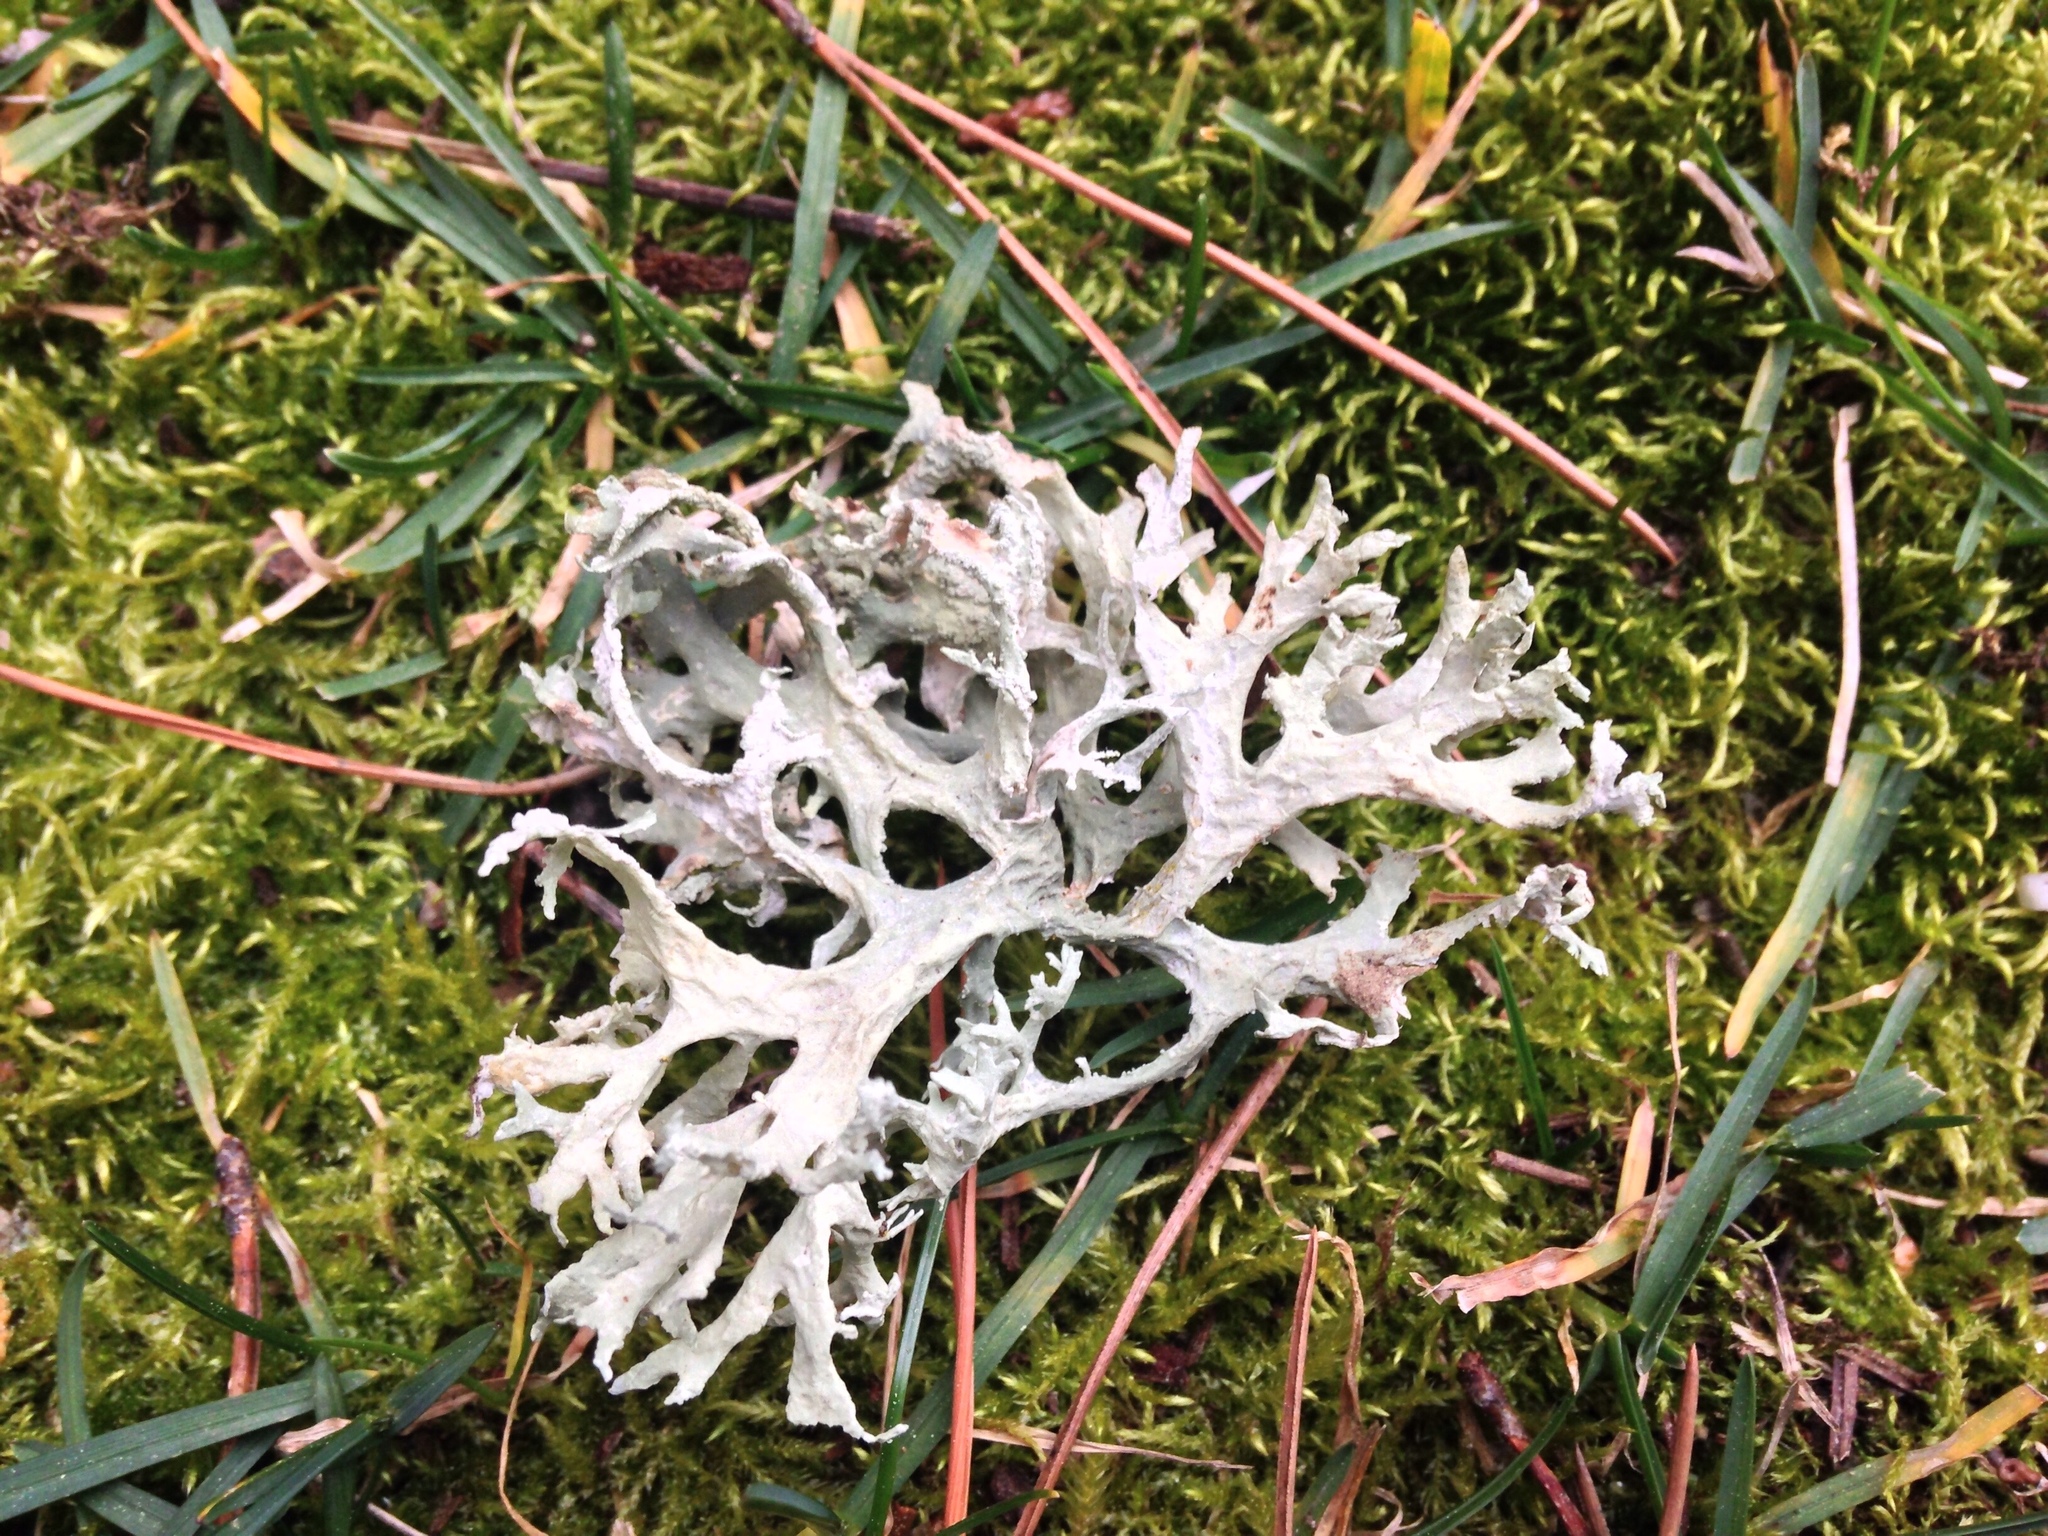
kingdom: Fungi
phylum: Ascomycota
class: Lecanoromycetes
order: Lecanorales
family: Parmeliaceae
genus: Evernia
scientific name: Evernia prunastri
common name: Oak moss
